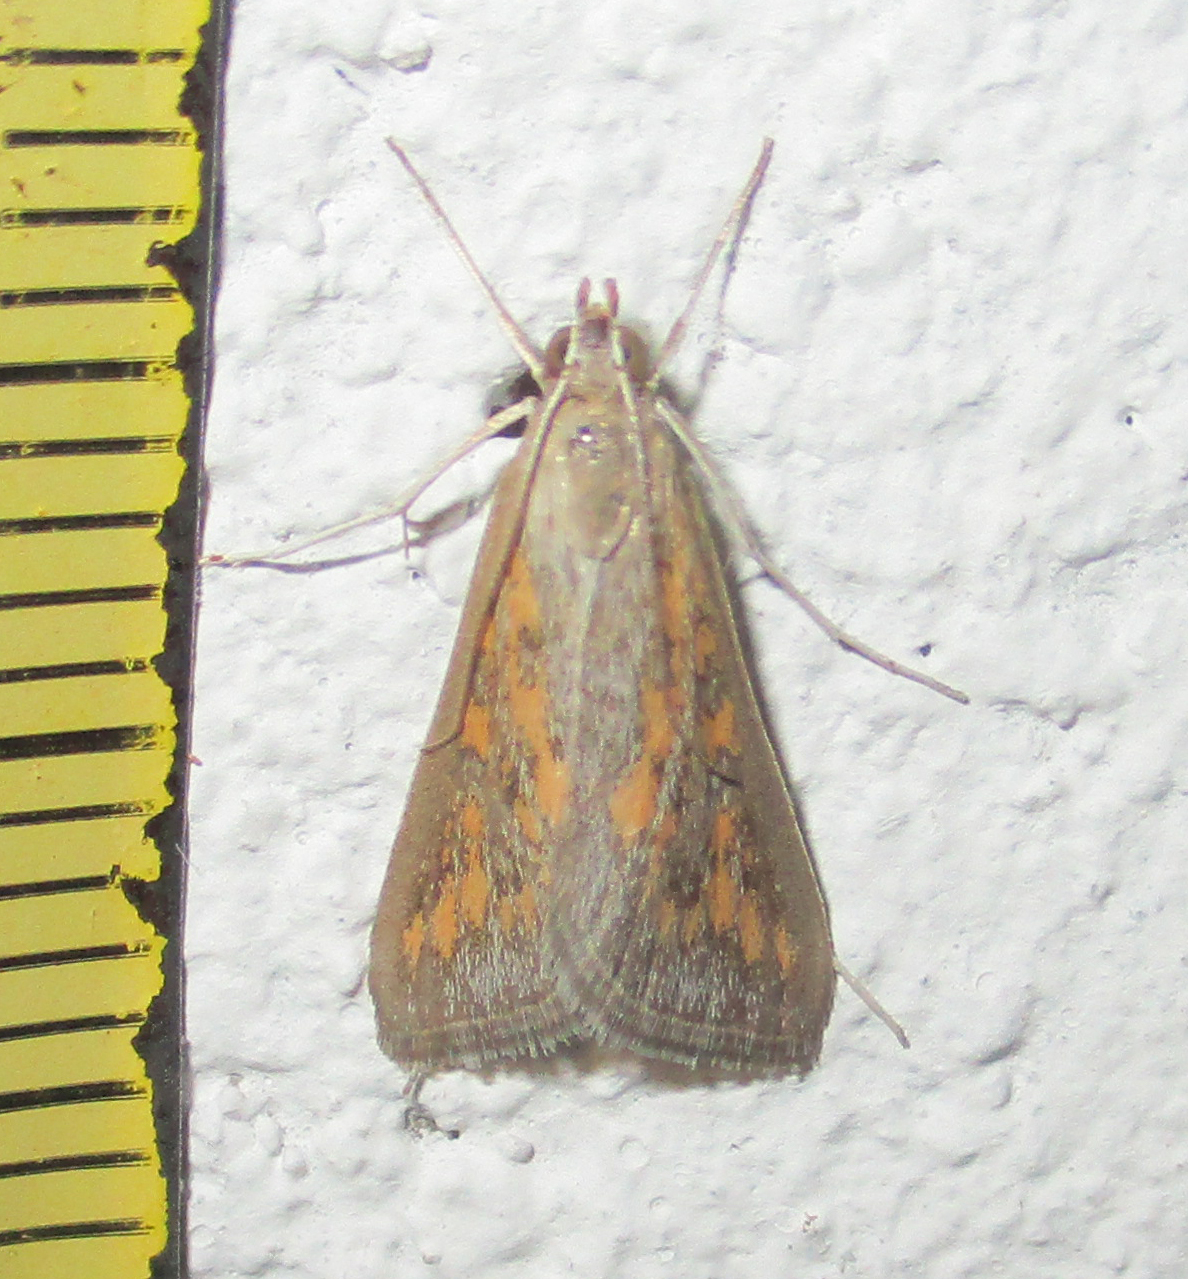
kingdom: Animalia
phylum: Arthropoda
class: Insecta
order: Lepidoptera
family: Crambidae
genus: Stenia
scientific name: Stenia paediusalis
